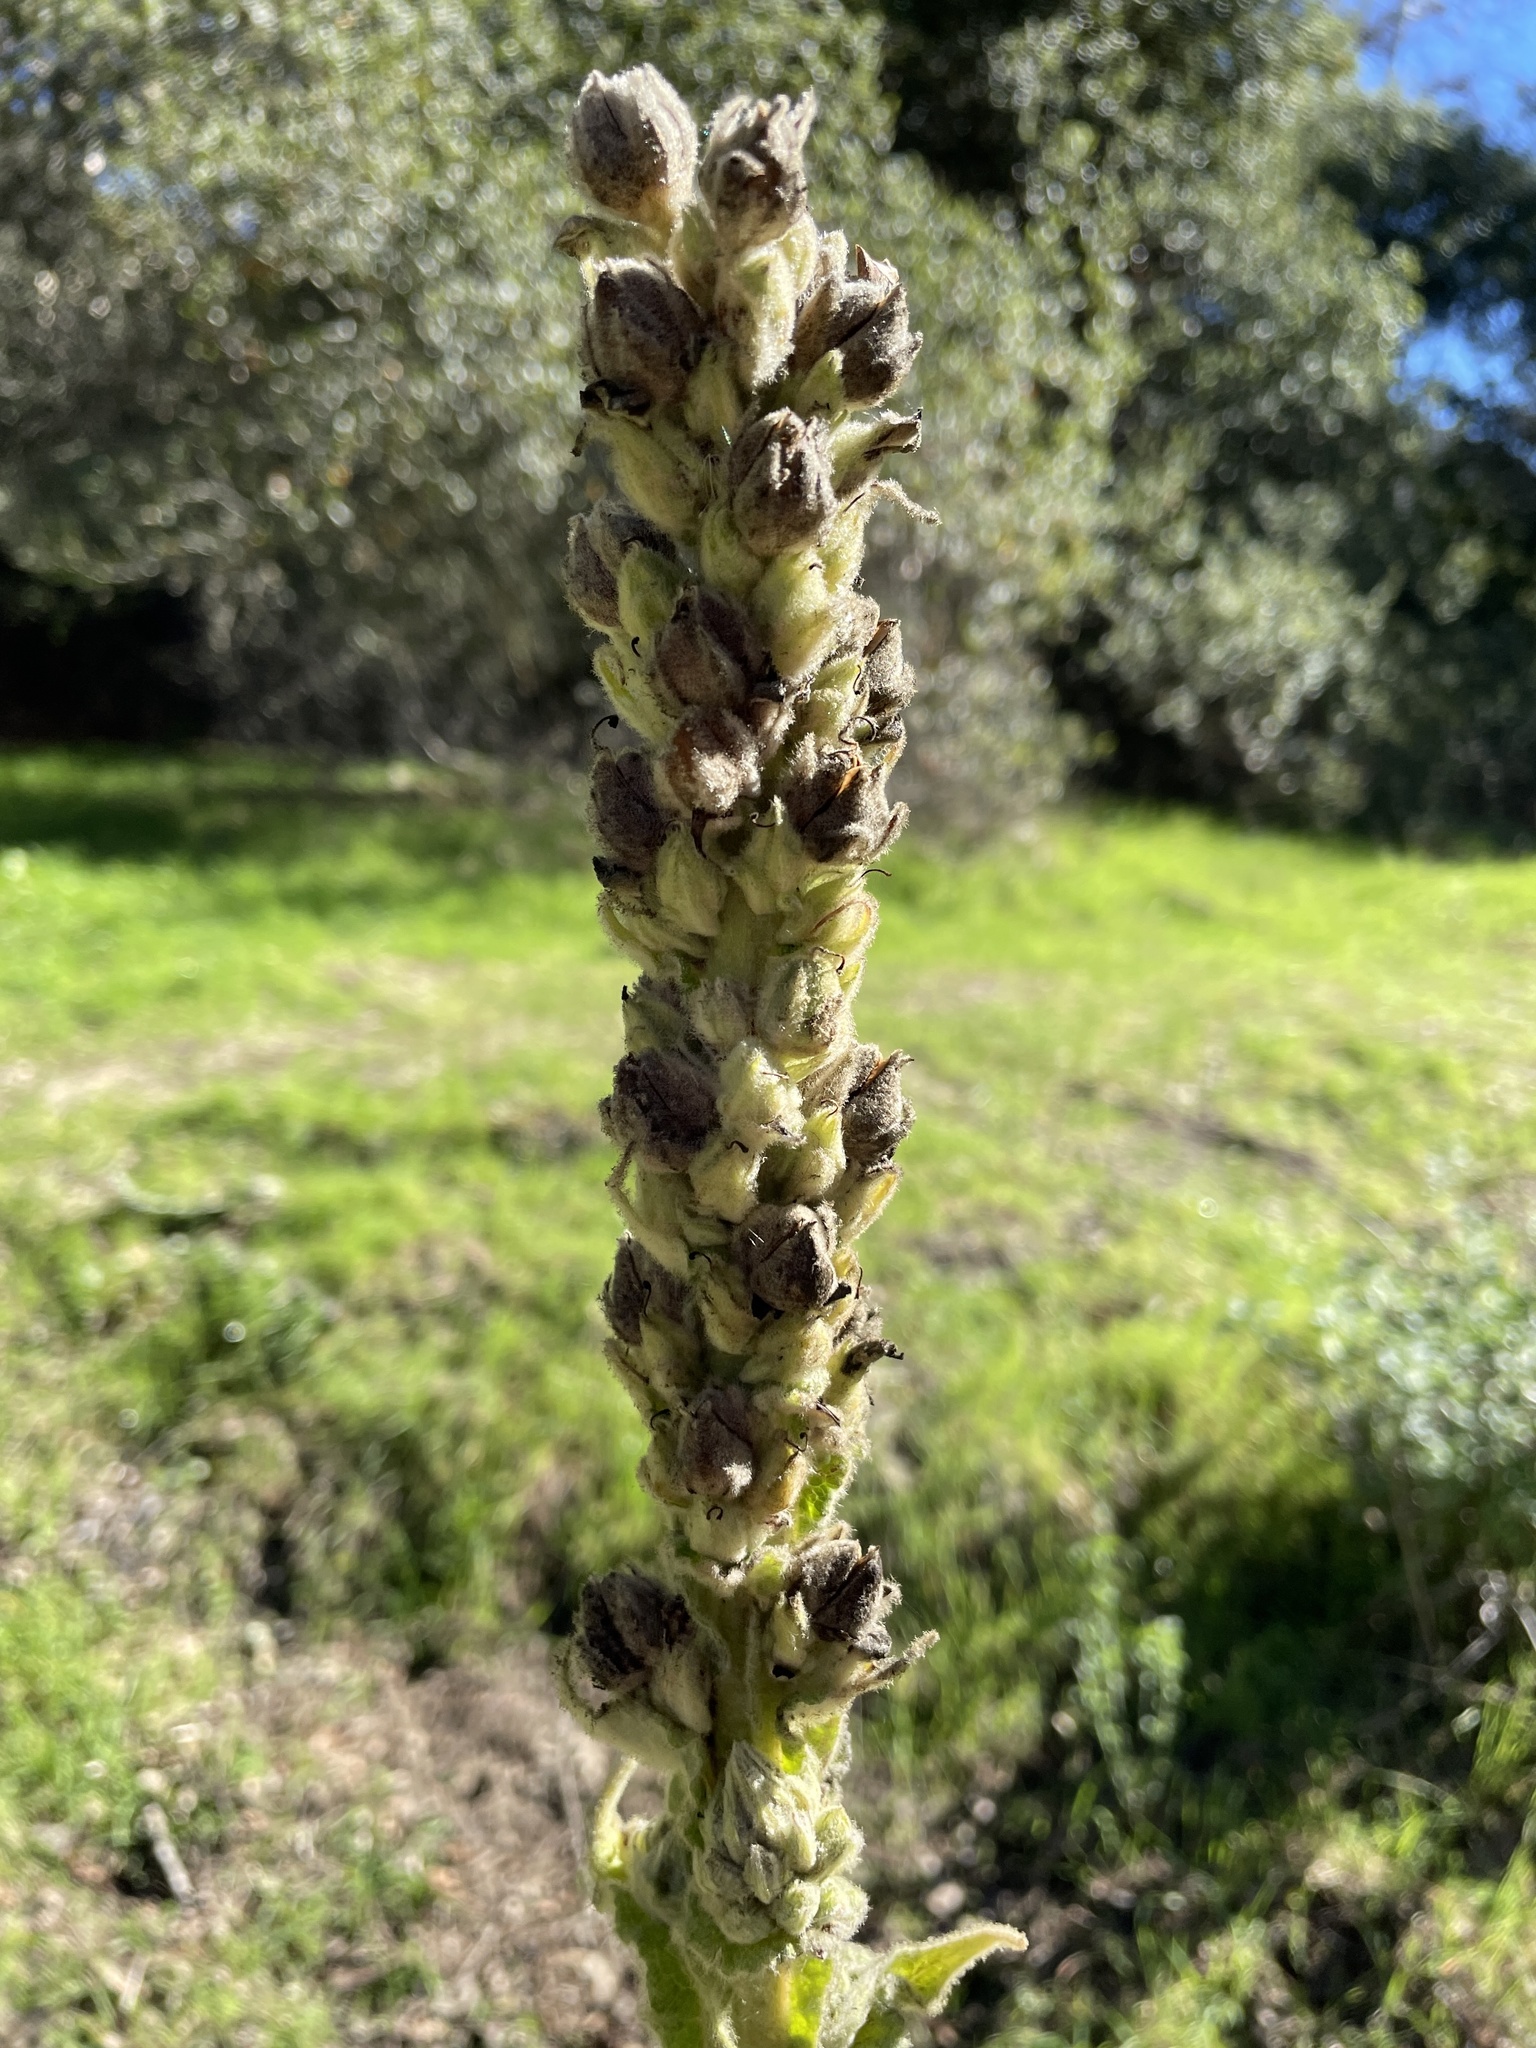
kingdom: Plantae
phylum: Tracheophyta
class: Magnoliopsida
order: Lamiales
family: Scrophulariaceae
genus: Verbascum
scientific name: Verbascum thapsus
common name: Common mullein
